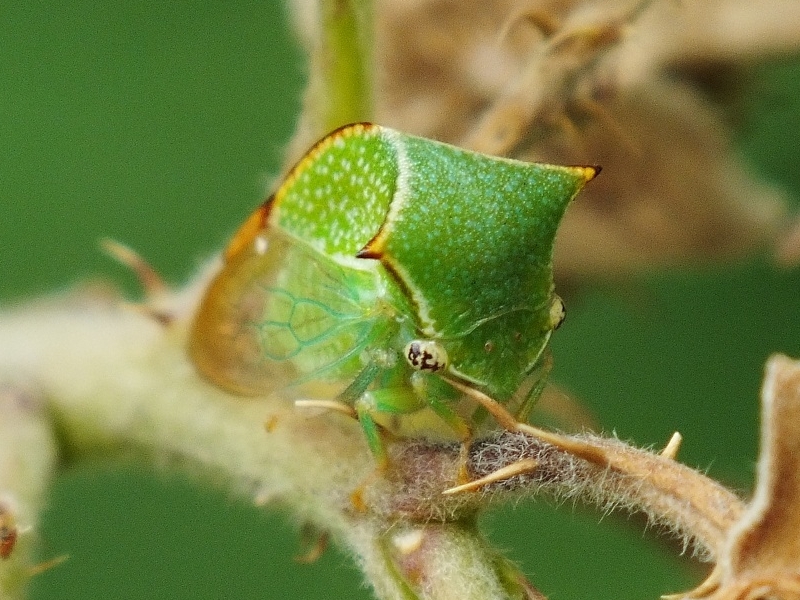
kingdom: Animalia
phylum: Arthropoda
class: Insecta
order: Hemiptera
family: Membracidae
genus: Stictocephala
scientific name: Stictocephala bisonia
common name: American buffalo treehopper
